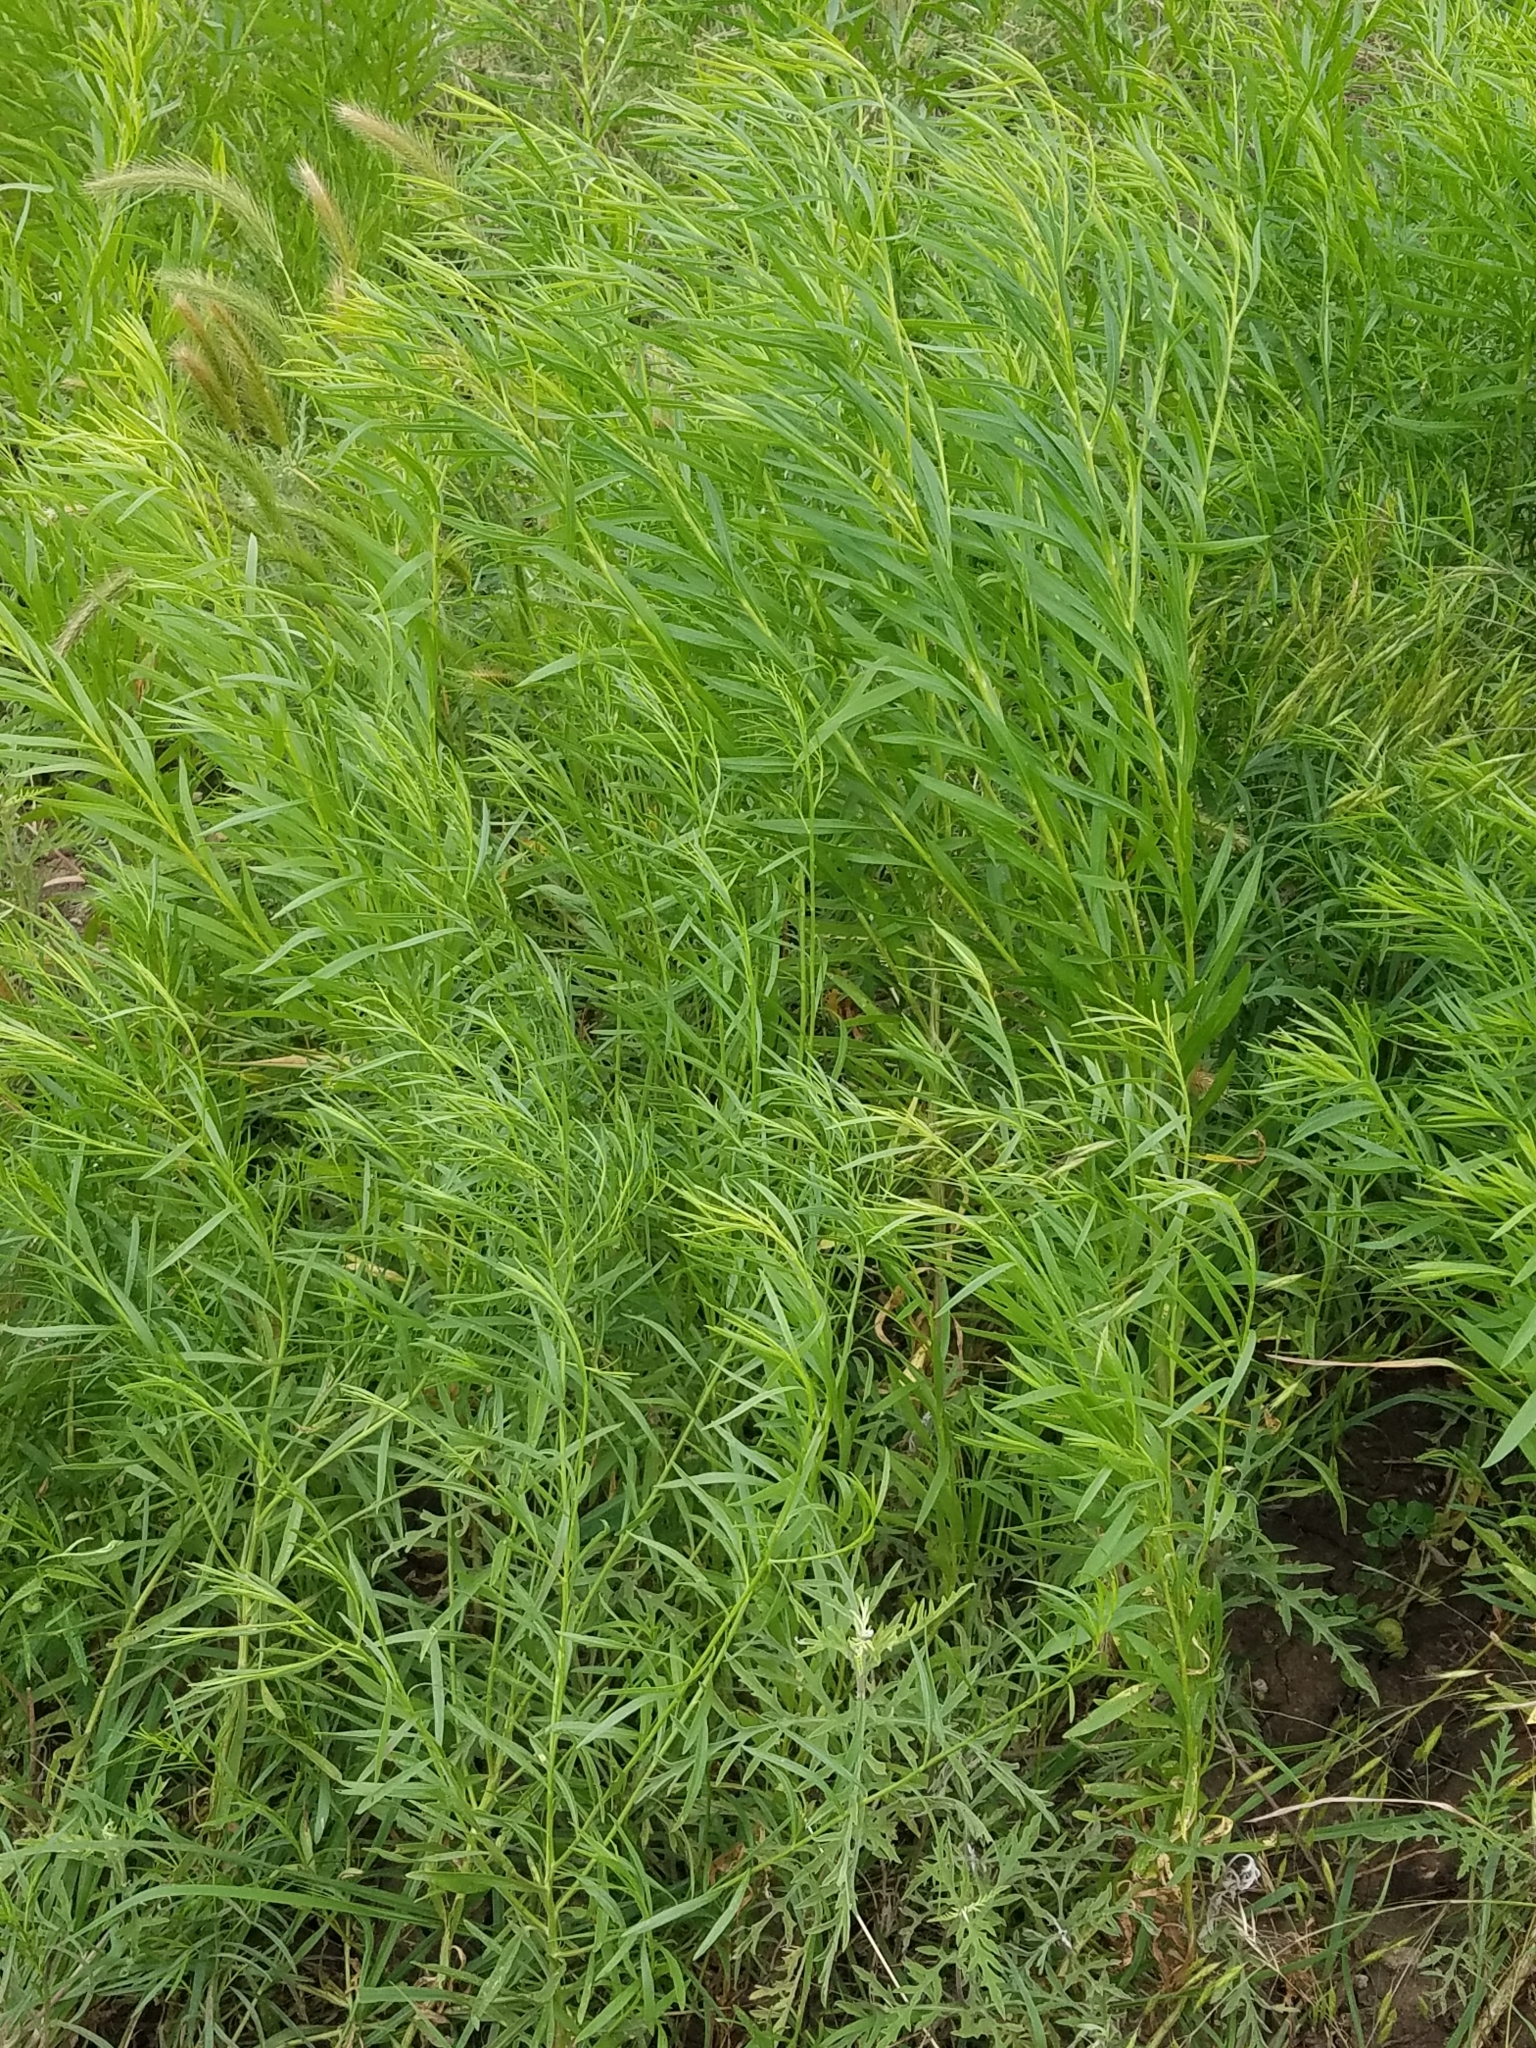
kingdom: Plantae
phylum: Tracheophyta
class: Magnoliopsida
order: Asterales
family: Asteraceae
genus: Baccharis
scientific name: Baccharis neglecta
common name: Roosevelt-weed
